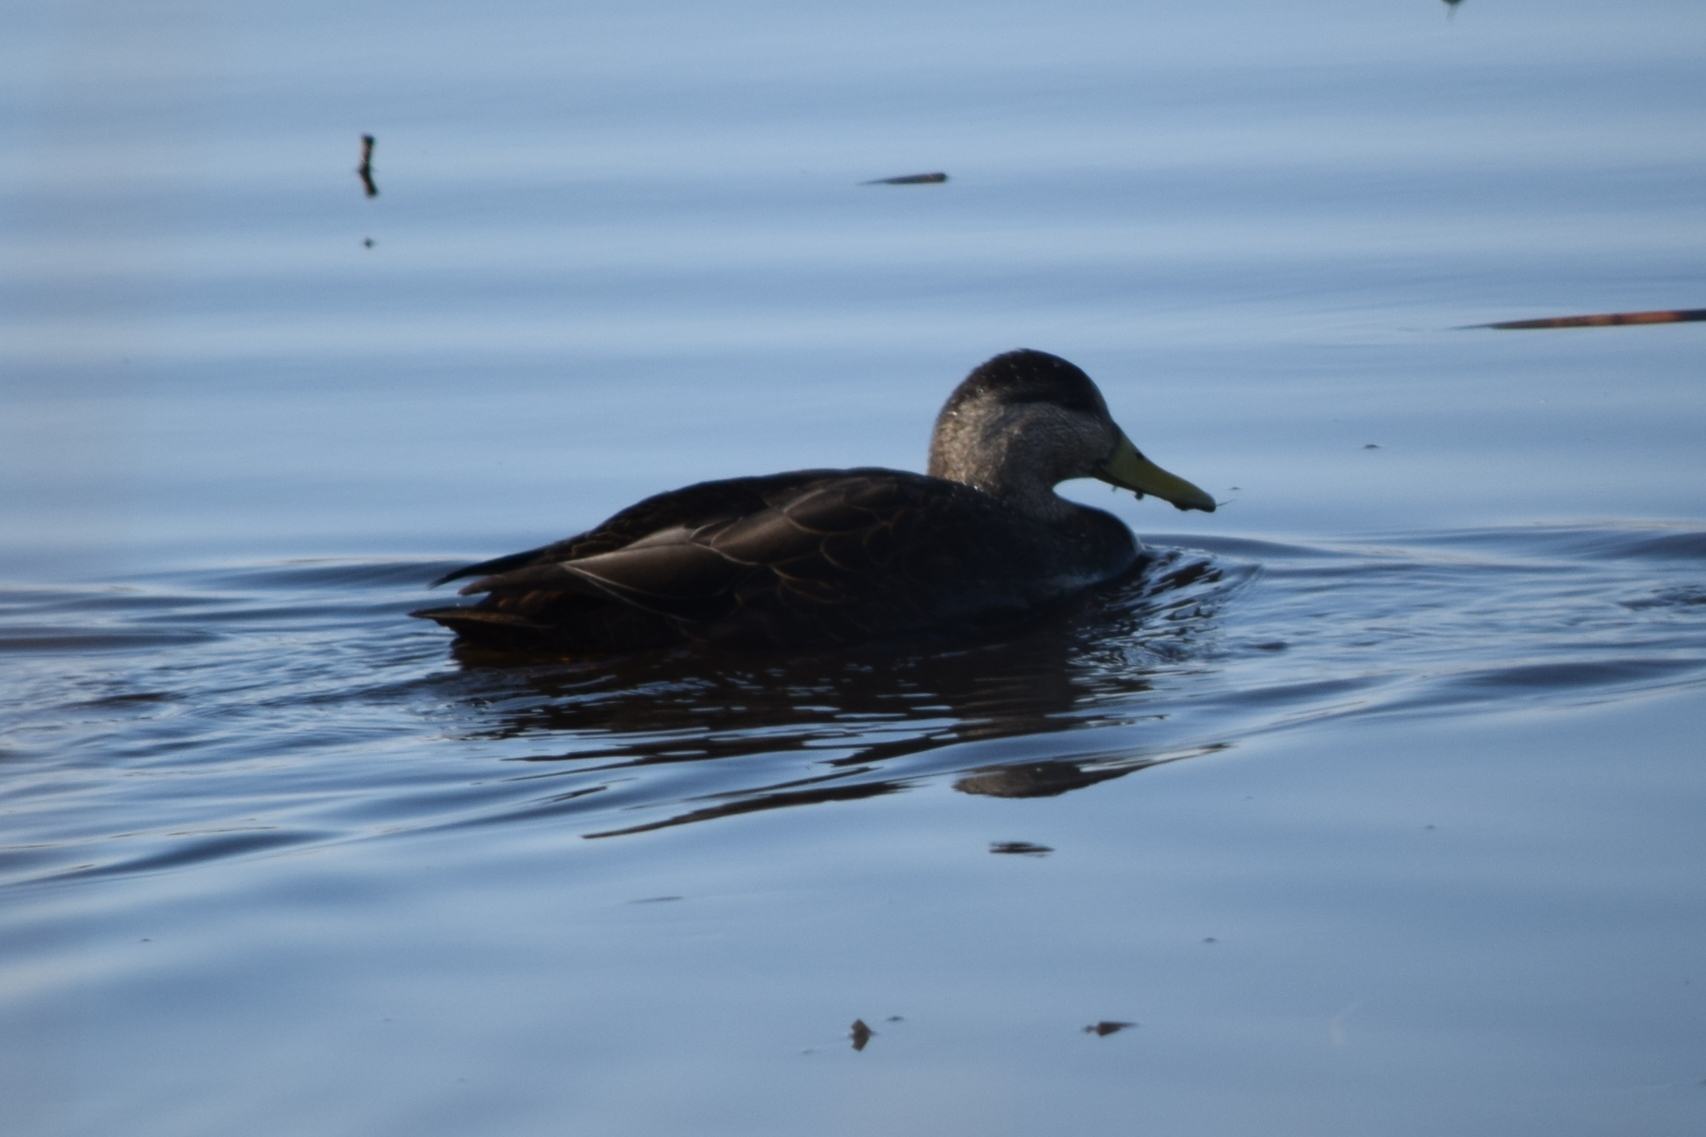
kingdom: Animalia
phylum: Chordata
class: Aves
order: Anseriformes
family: Anatidae
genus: Anas
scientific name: Anas rubripes
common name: American black duck
